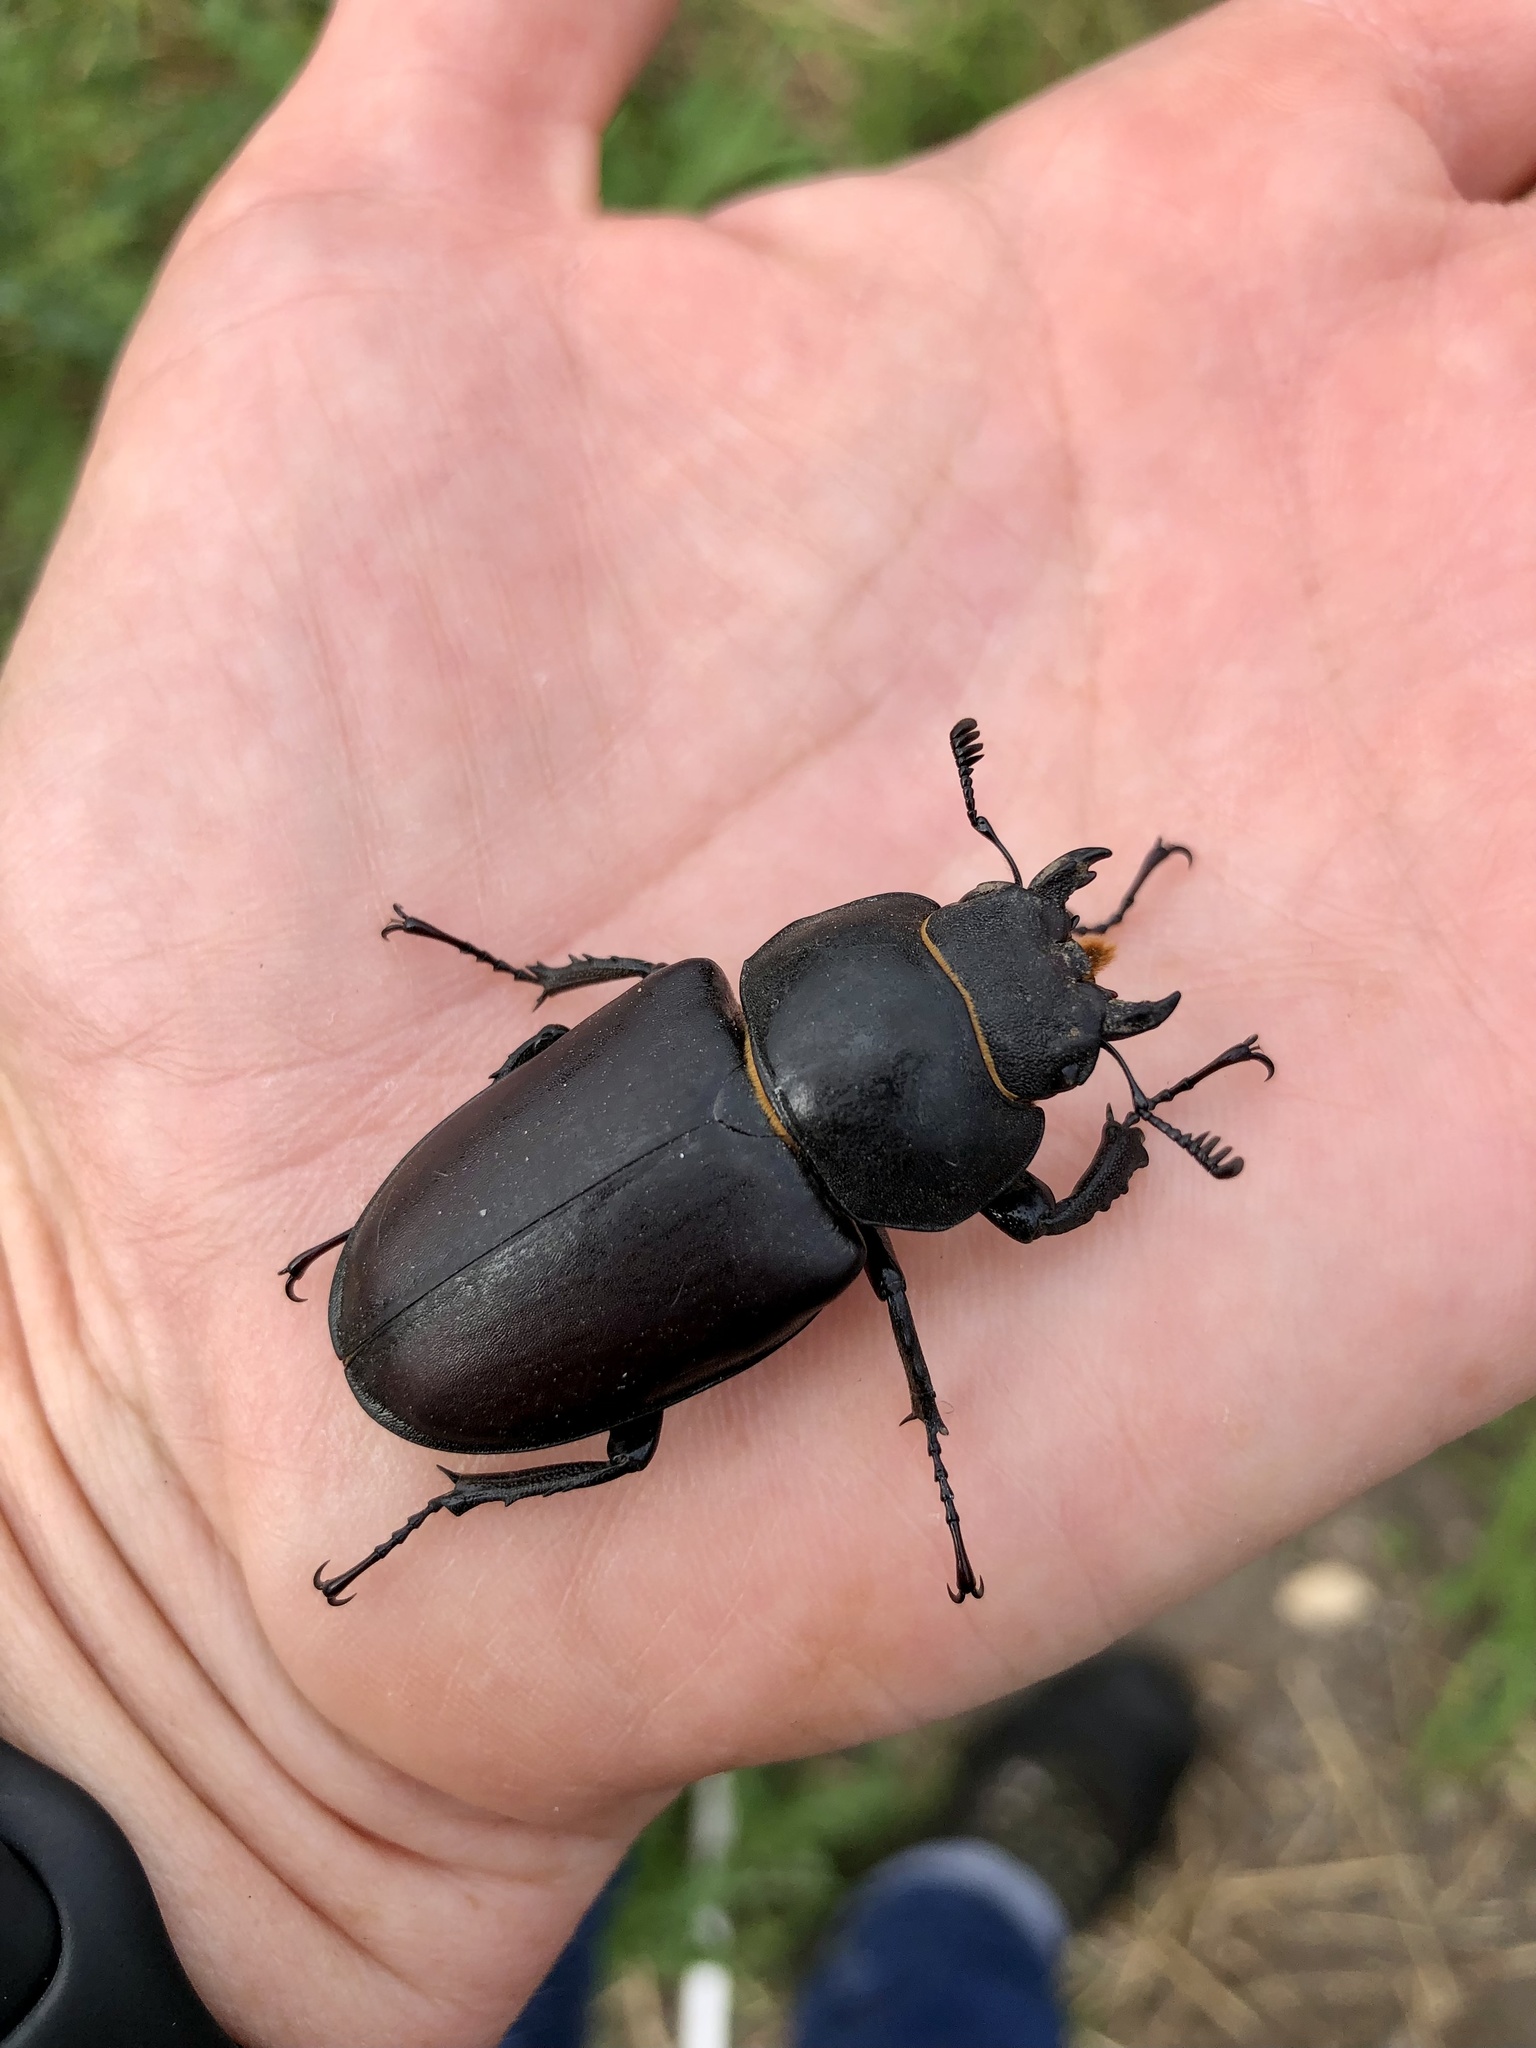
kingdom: Animalia
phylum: Arthropoda
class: Insecta
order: Coleoptera
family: Lucanidae
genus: Lucanus
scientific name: Lucanus cervus
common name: Stag beetle
